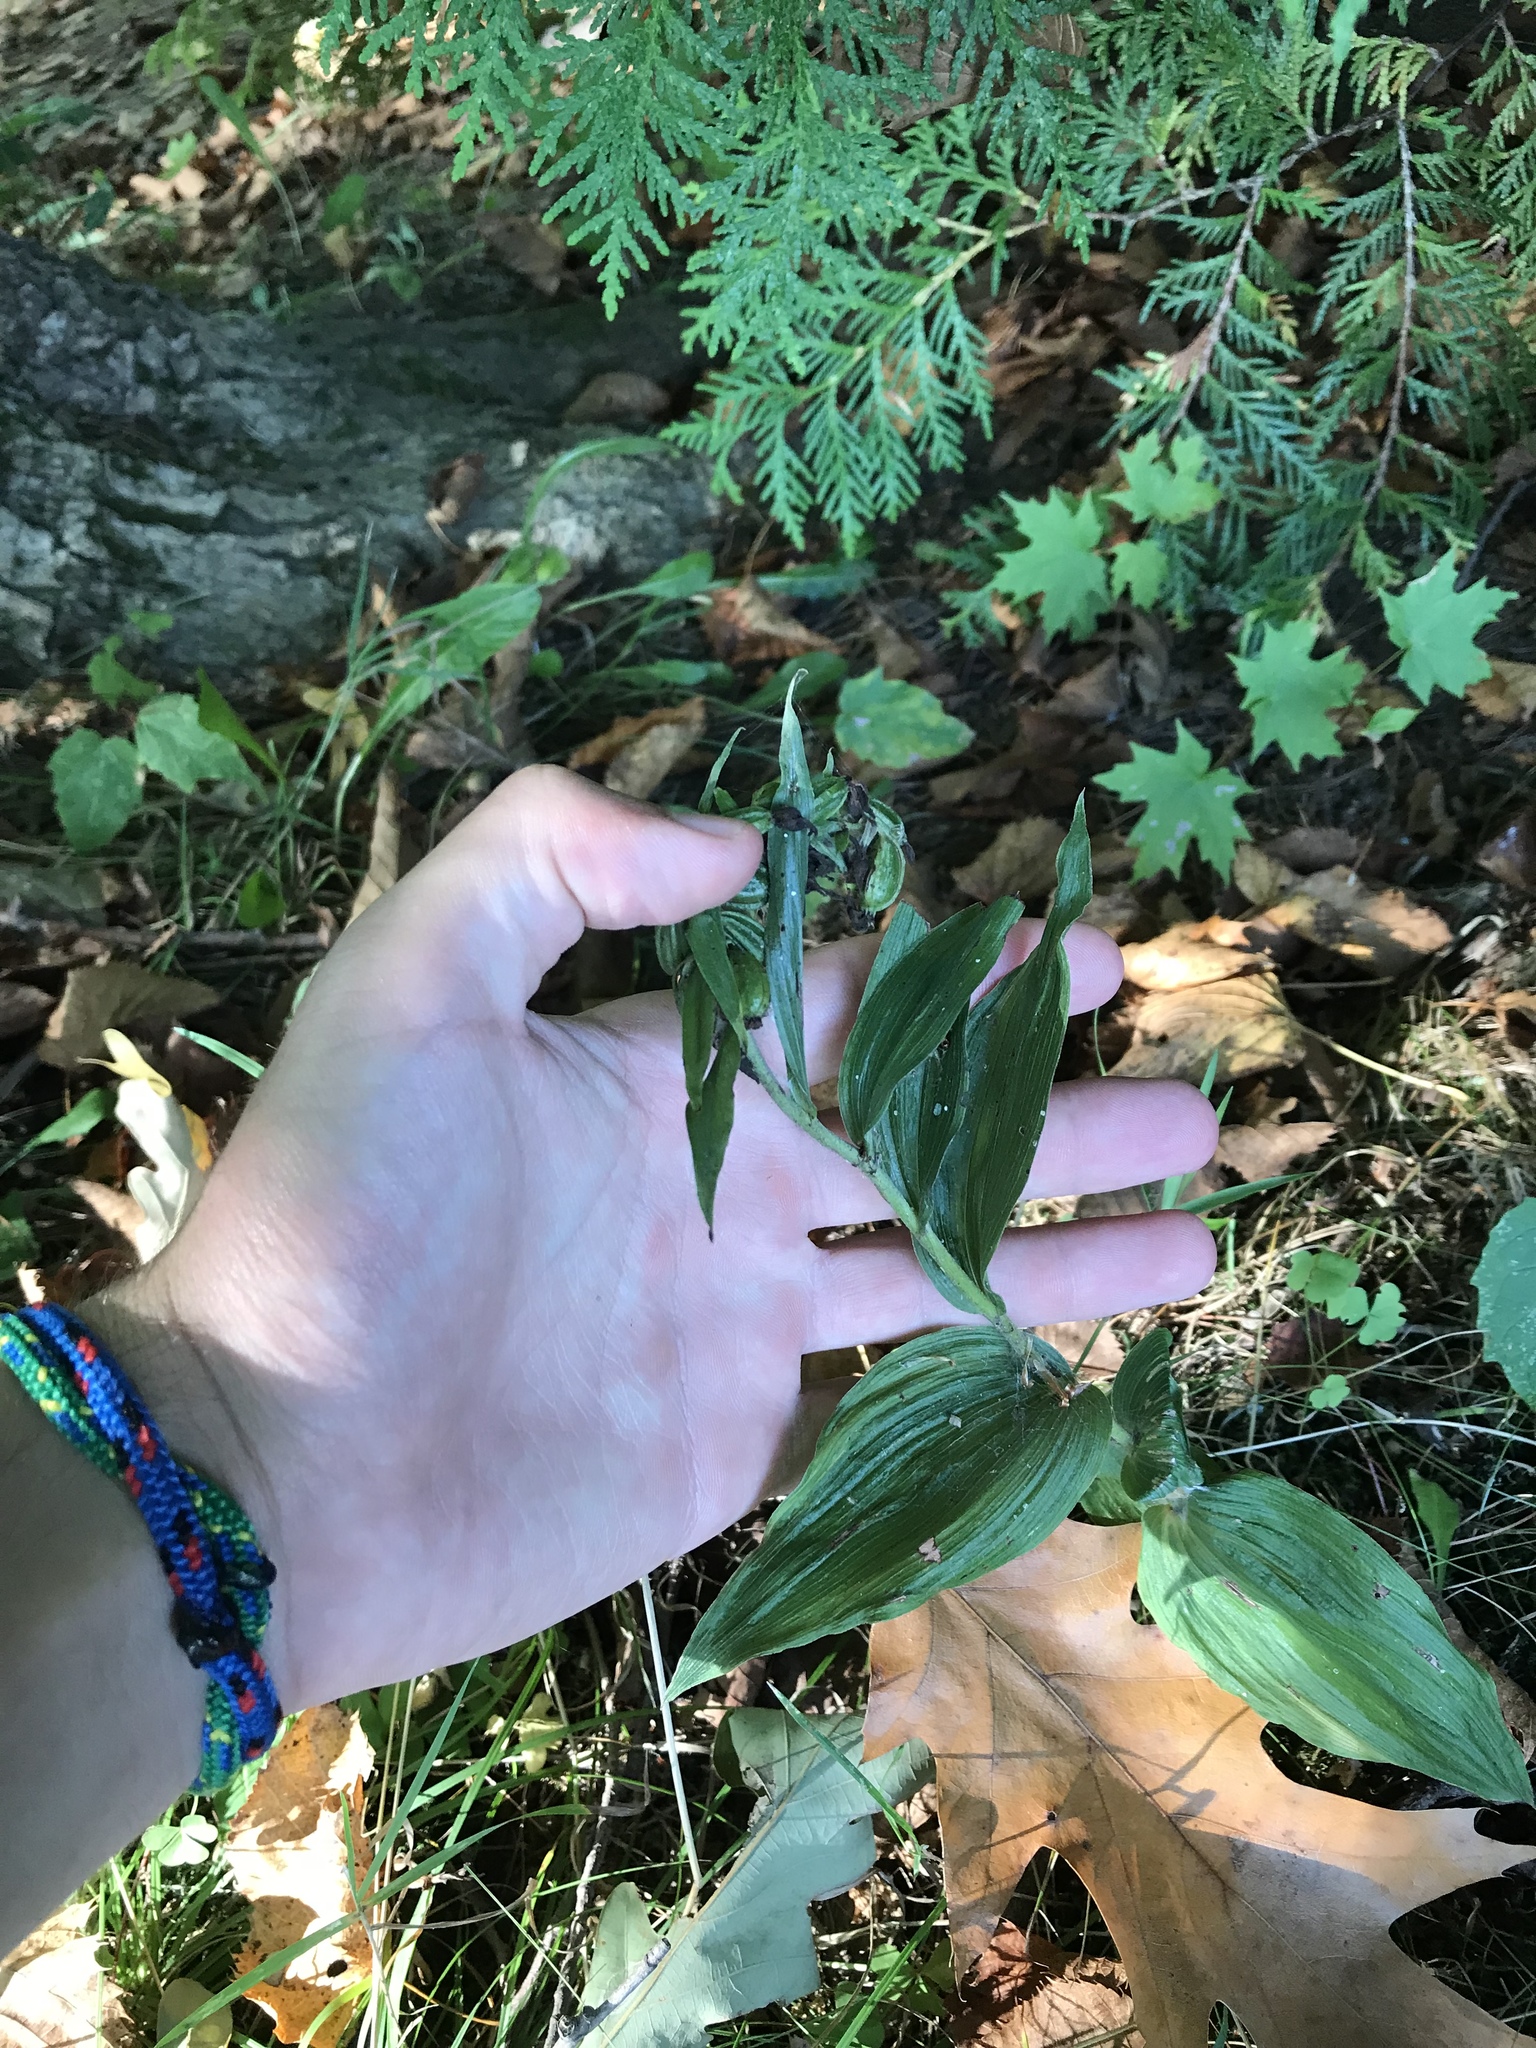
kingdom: Plantae
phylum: Tracheophyta
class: Liliopsida
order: Asparagales
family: Orchidaceae
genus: Epipactis
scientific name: Epipactis helleborine
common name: Broad-leaved helleborine
